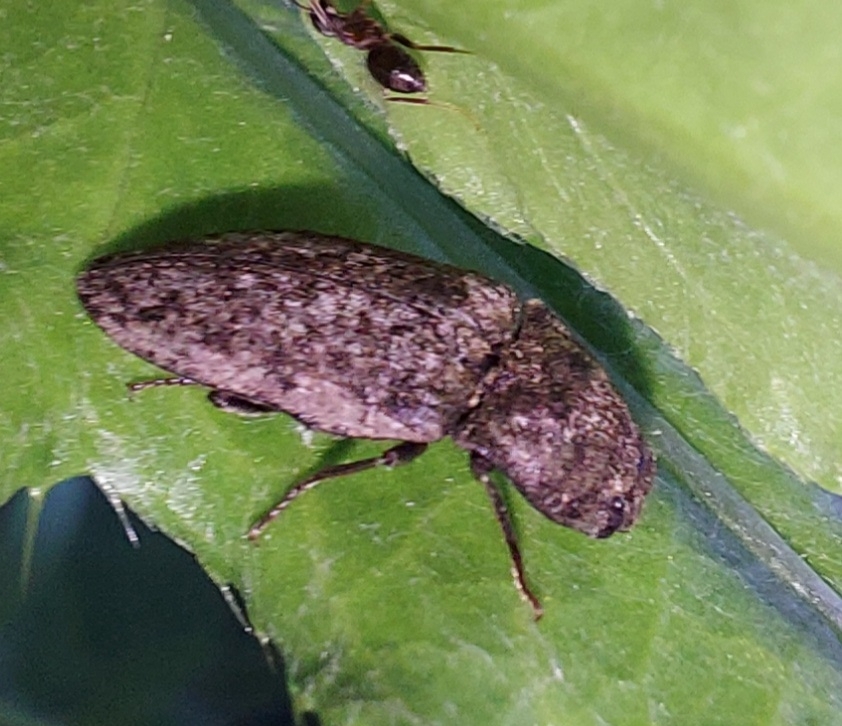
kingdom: Animalia
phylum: Arthropoda
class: Insecta
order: Coleoptera
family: Elateridae
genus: Agrypnus
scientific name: Agrypnus murinus
